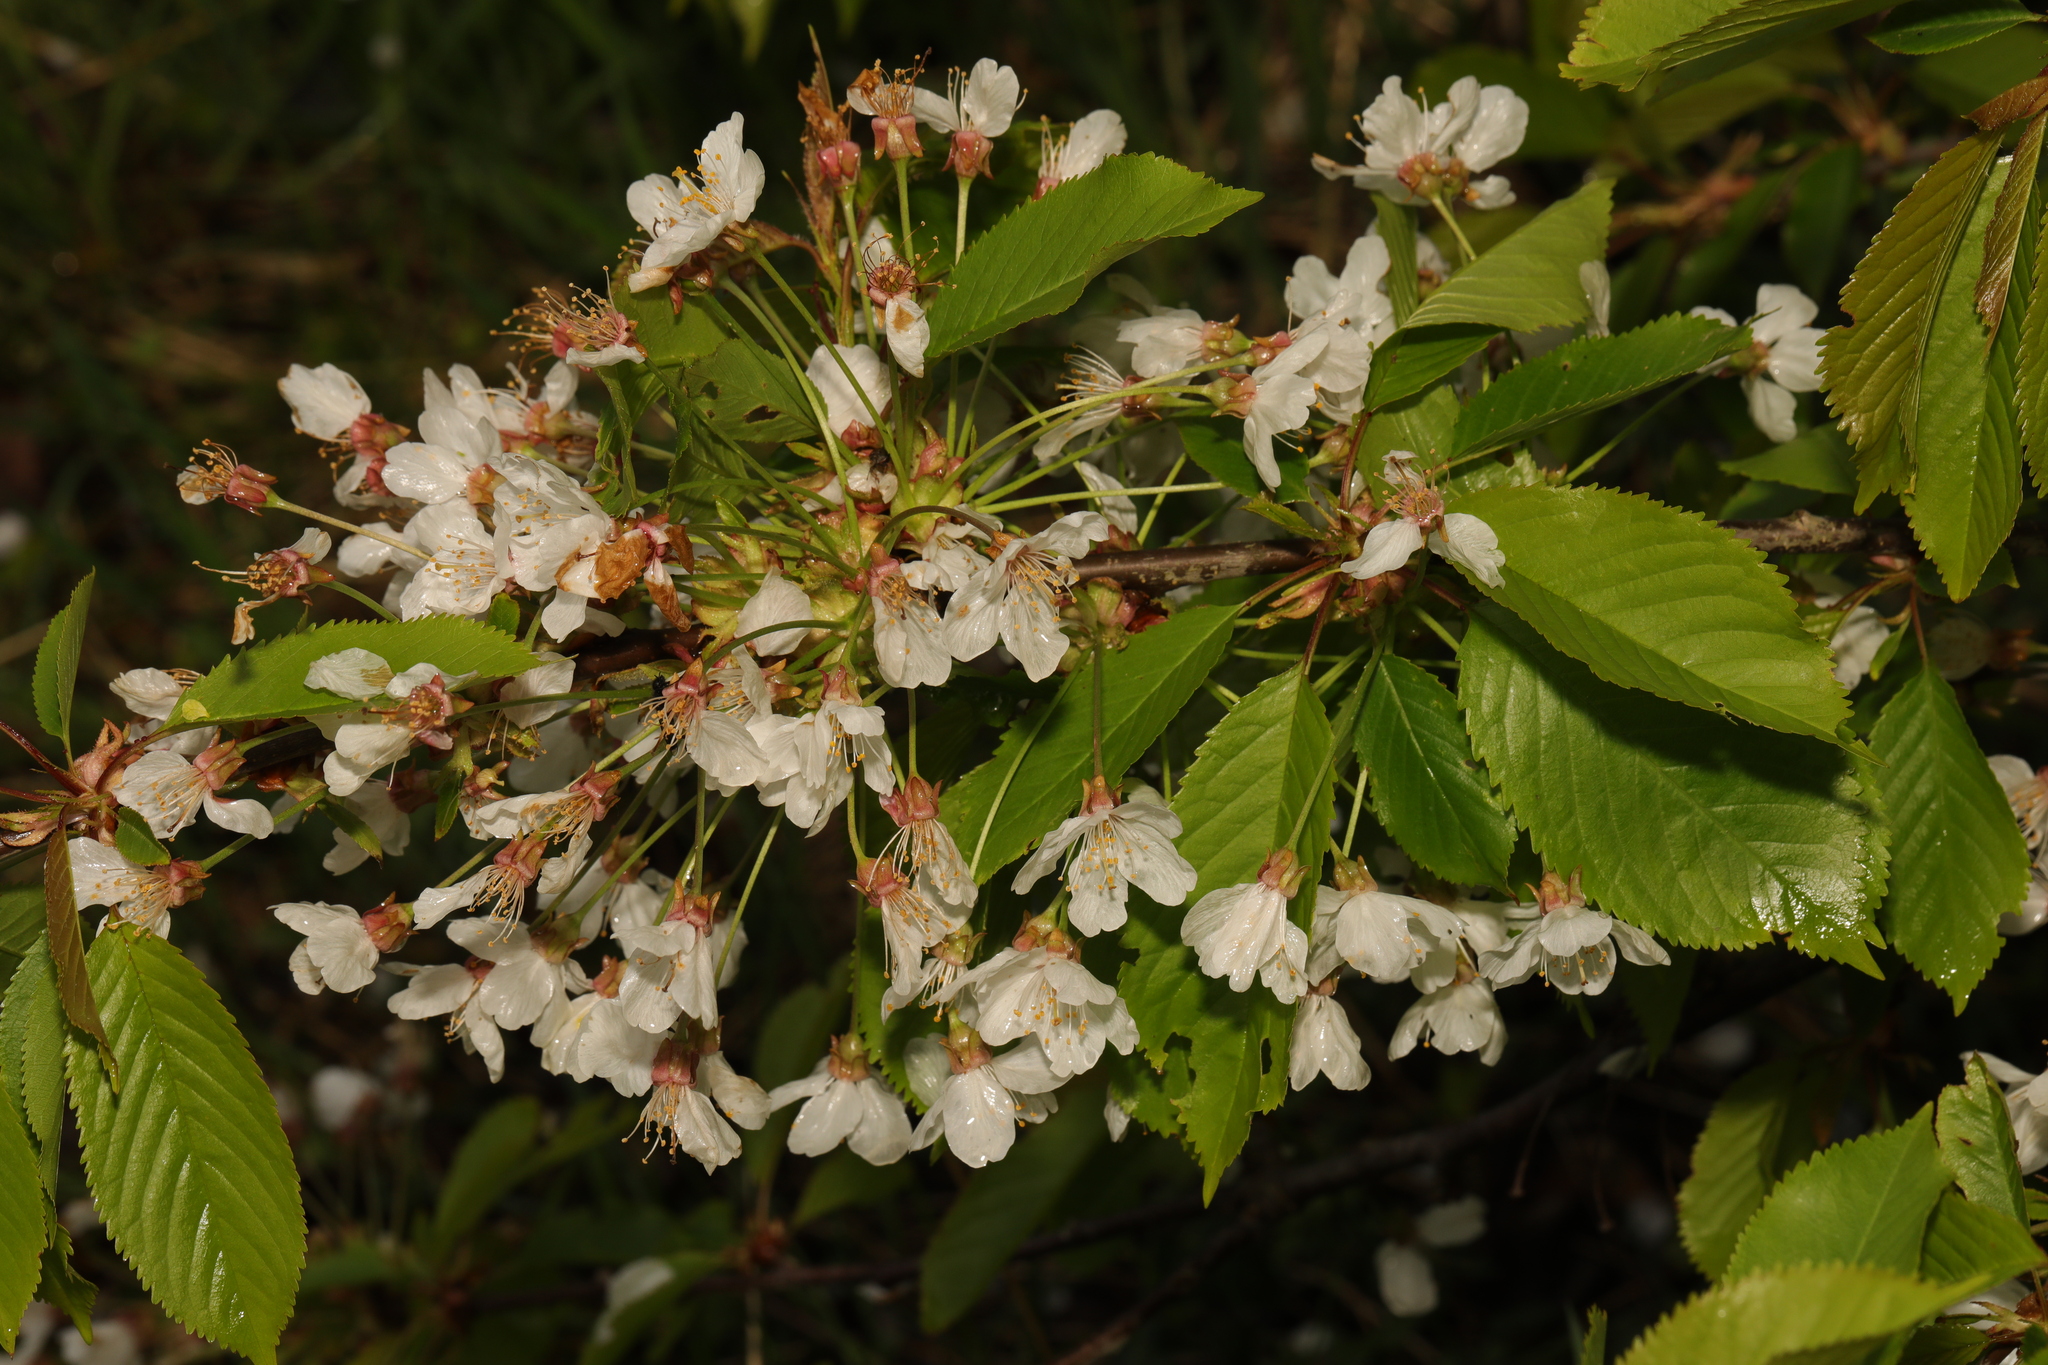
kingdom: Plantae
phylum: Tracheophyta
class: Magnoliopsida
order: Rosales
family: Rosaceae
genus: Prunus
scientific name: Prunus avium
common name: Sweet cherry
